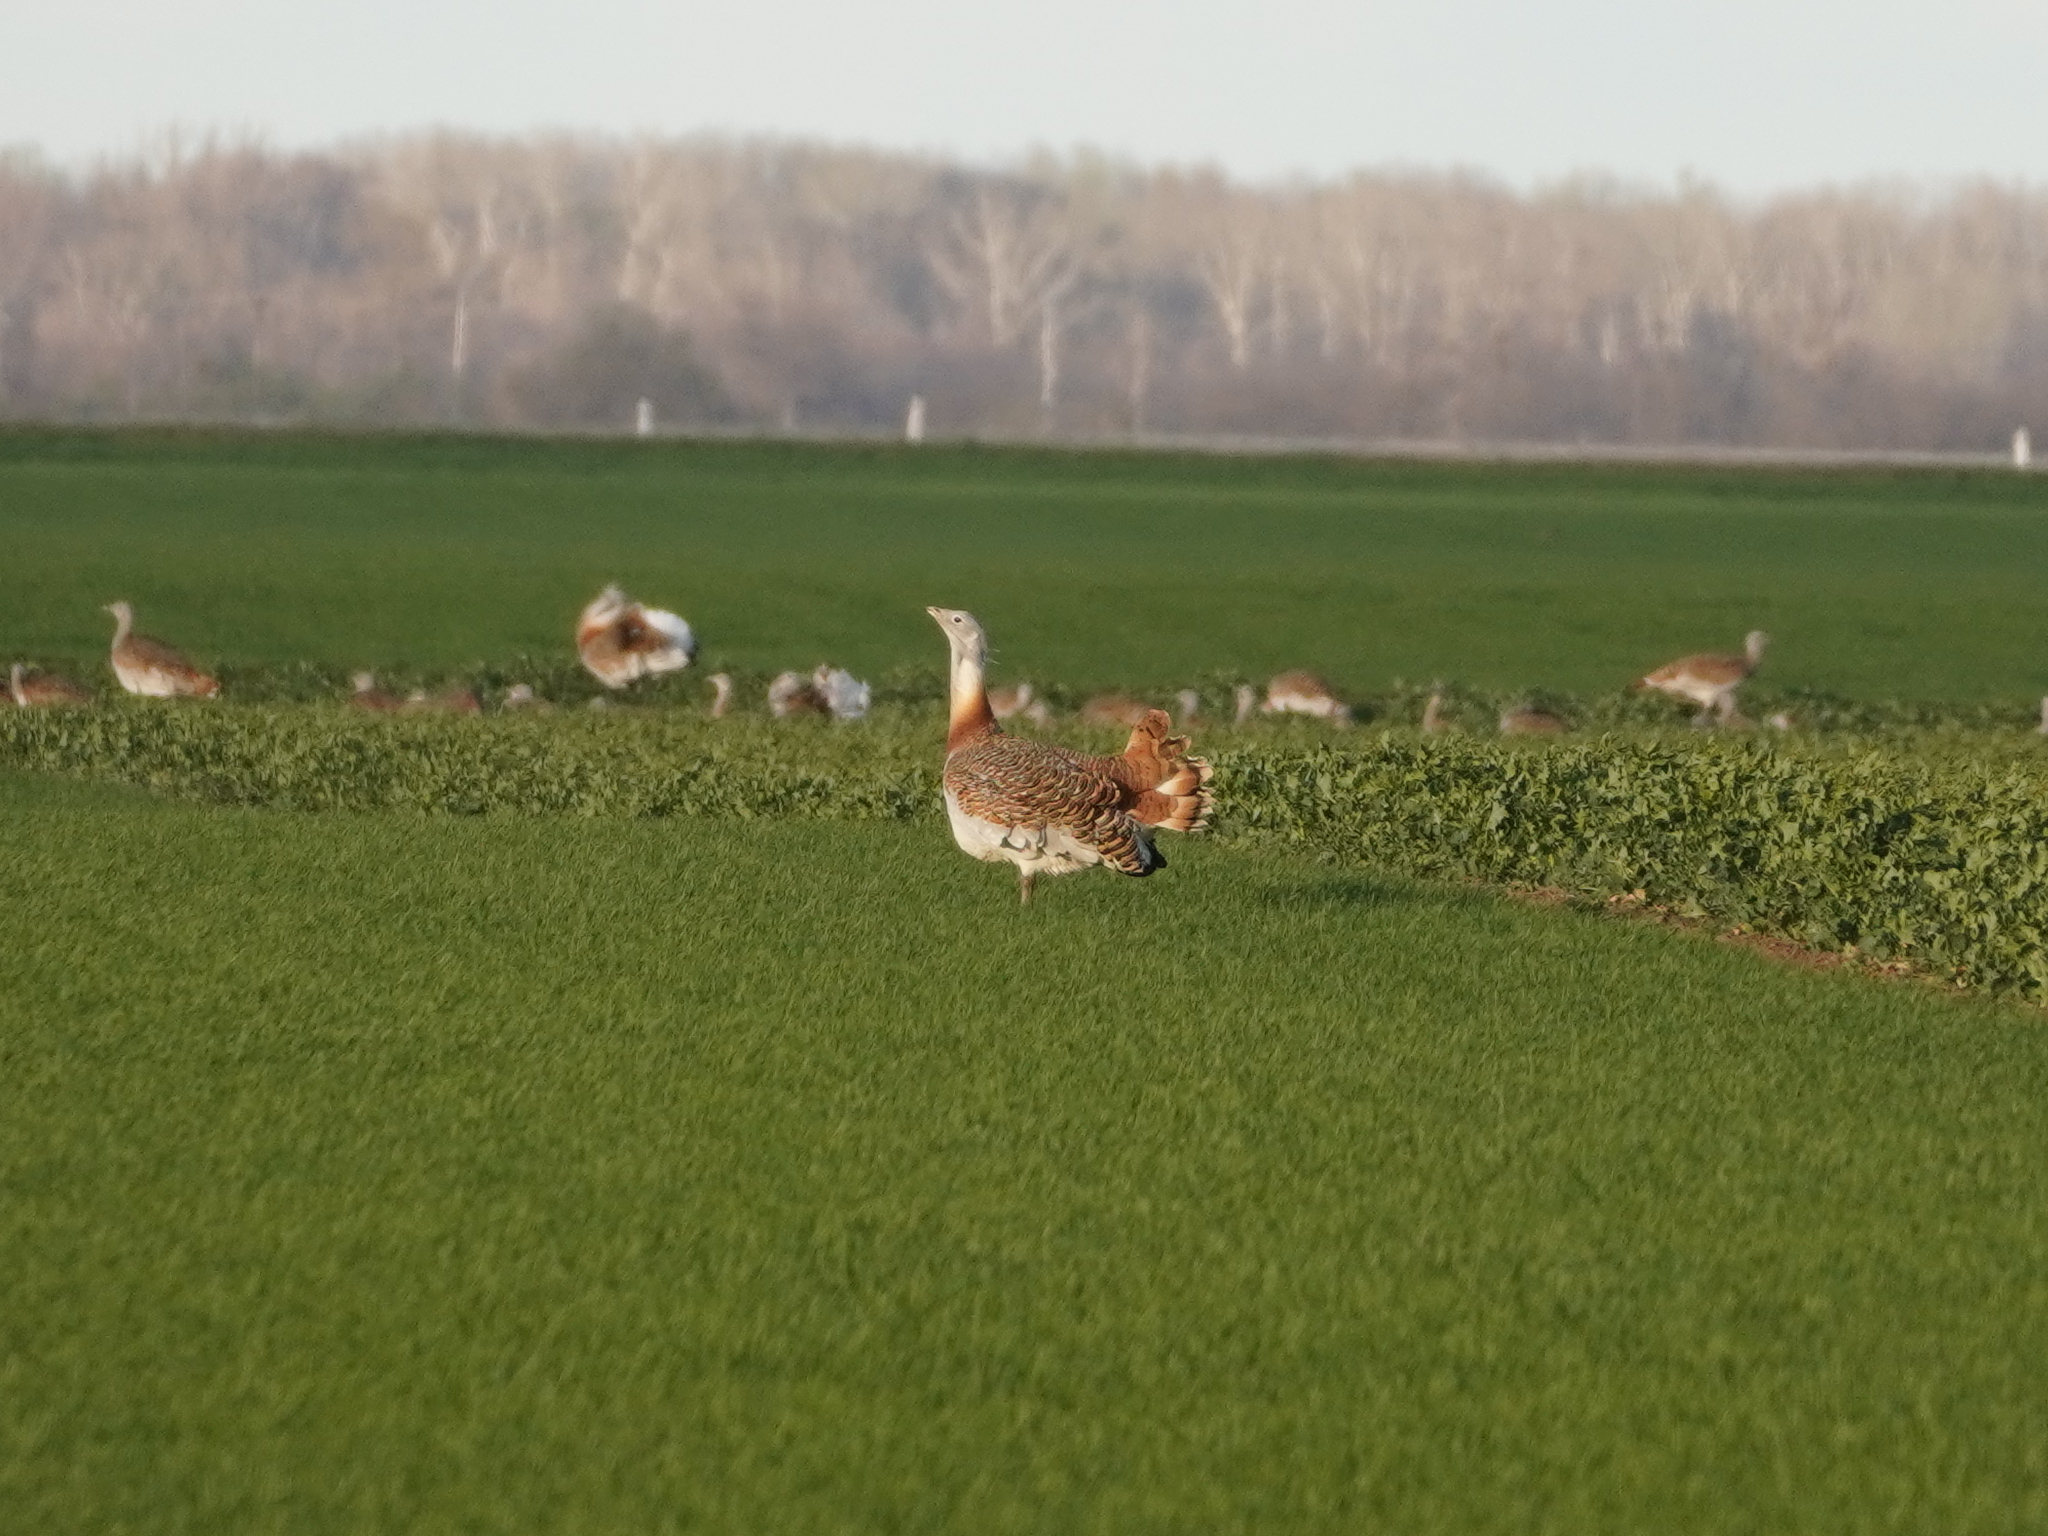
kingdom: Animalia
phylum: Chordata
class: Aves
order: Otidiformes
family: Otididae
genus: Otis
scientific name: Otis tarda
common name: Great bustard
